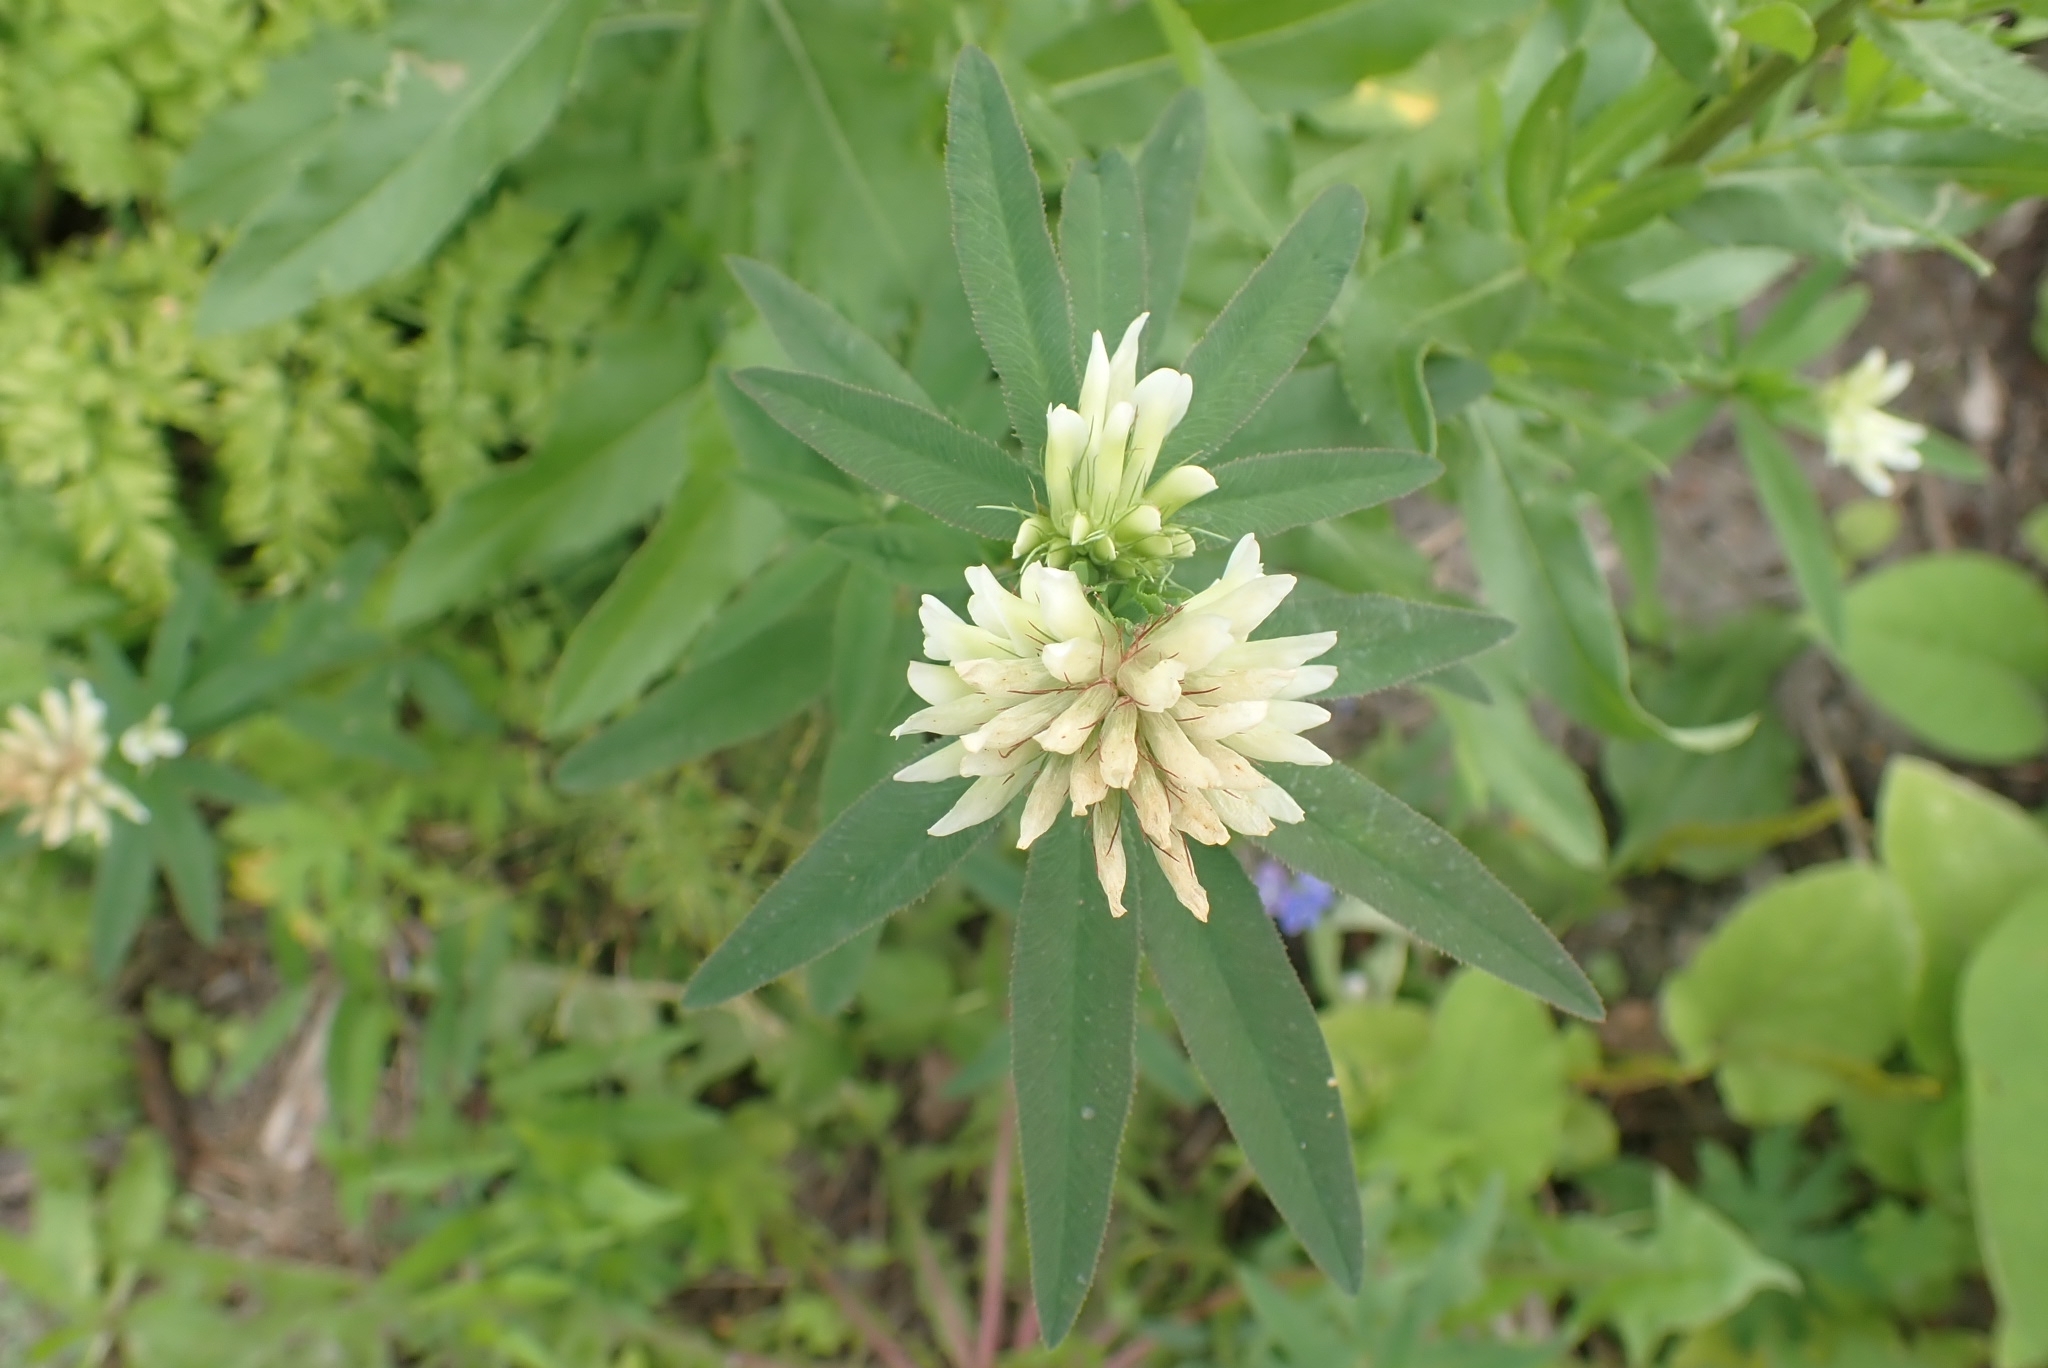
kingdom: Plantae
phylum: Tracheophyta
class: Magnoliopsida
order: Fabales
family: Fabaceae
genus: Trifolium
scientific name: Trifolium lupinaster
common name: Lupine clover
